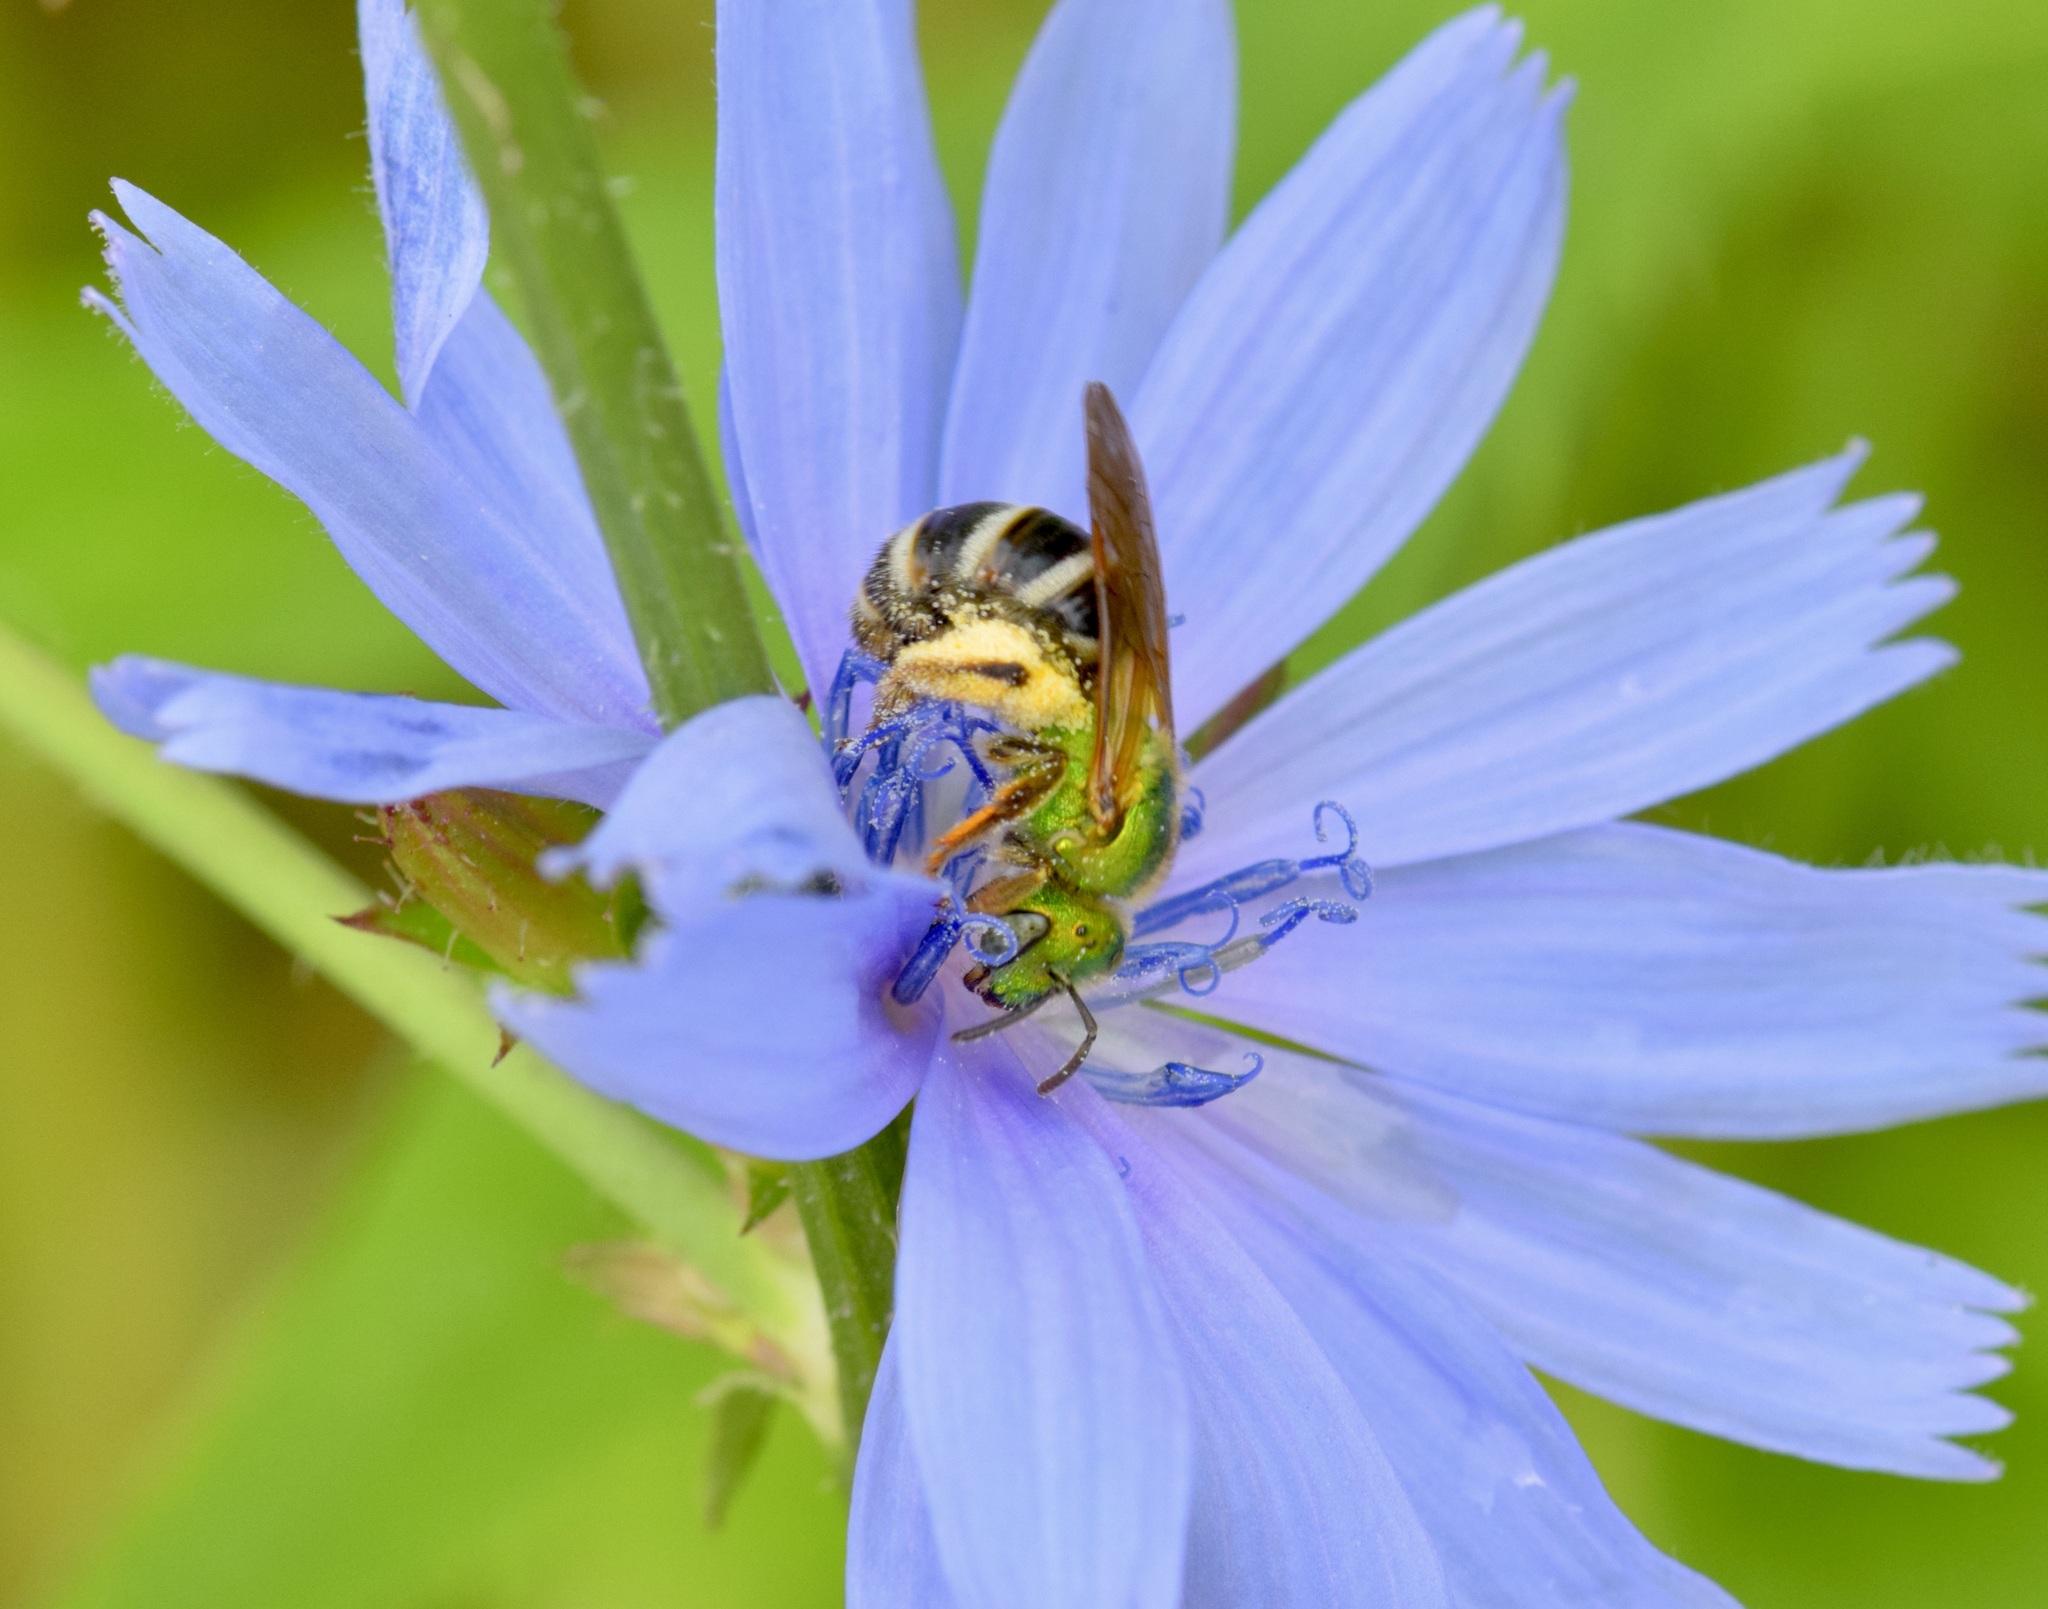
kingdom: Animalia
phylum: Arthropoda
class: Insecta
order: Hymenoptera
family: Halictidae
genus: Agapostemon
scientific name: Agapostemon virescens
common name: Bicolored striped sweat bee
